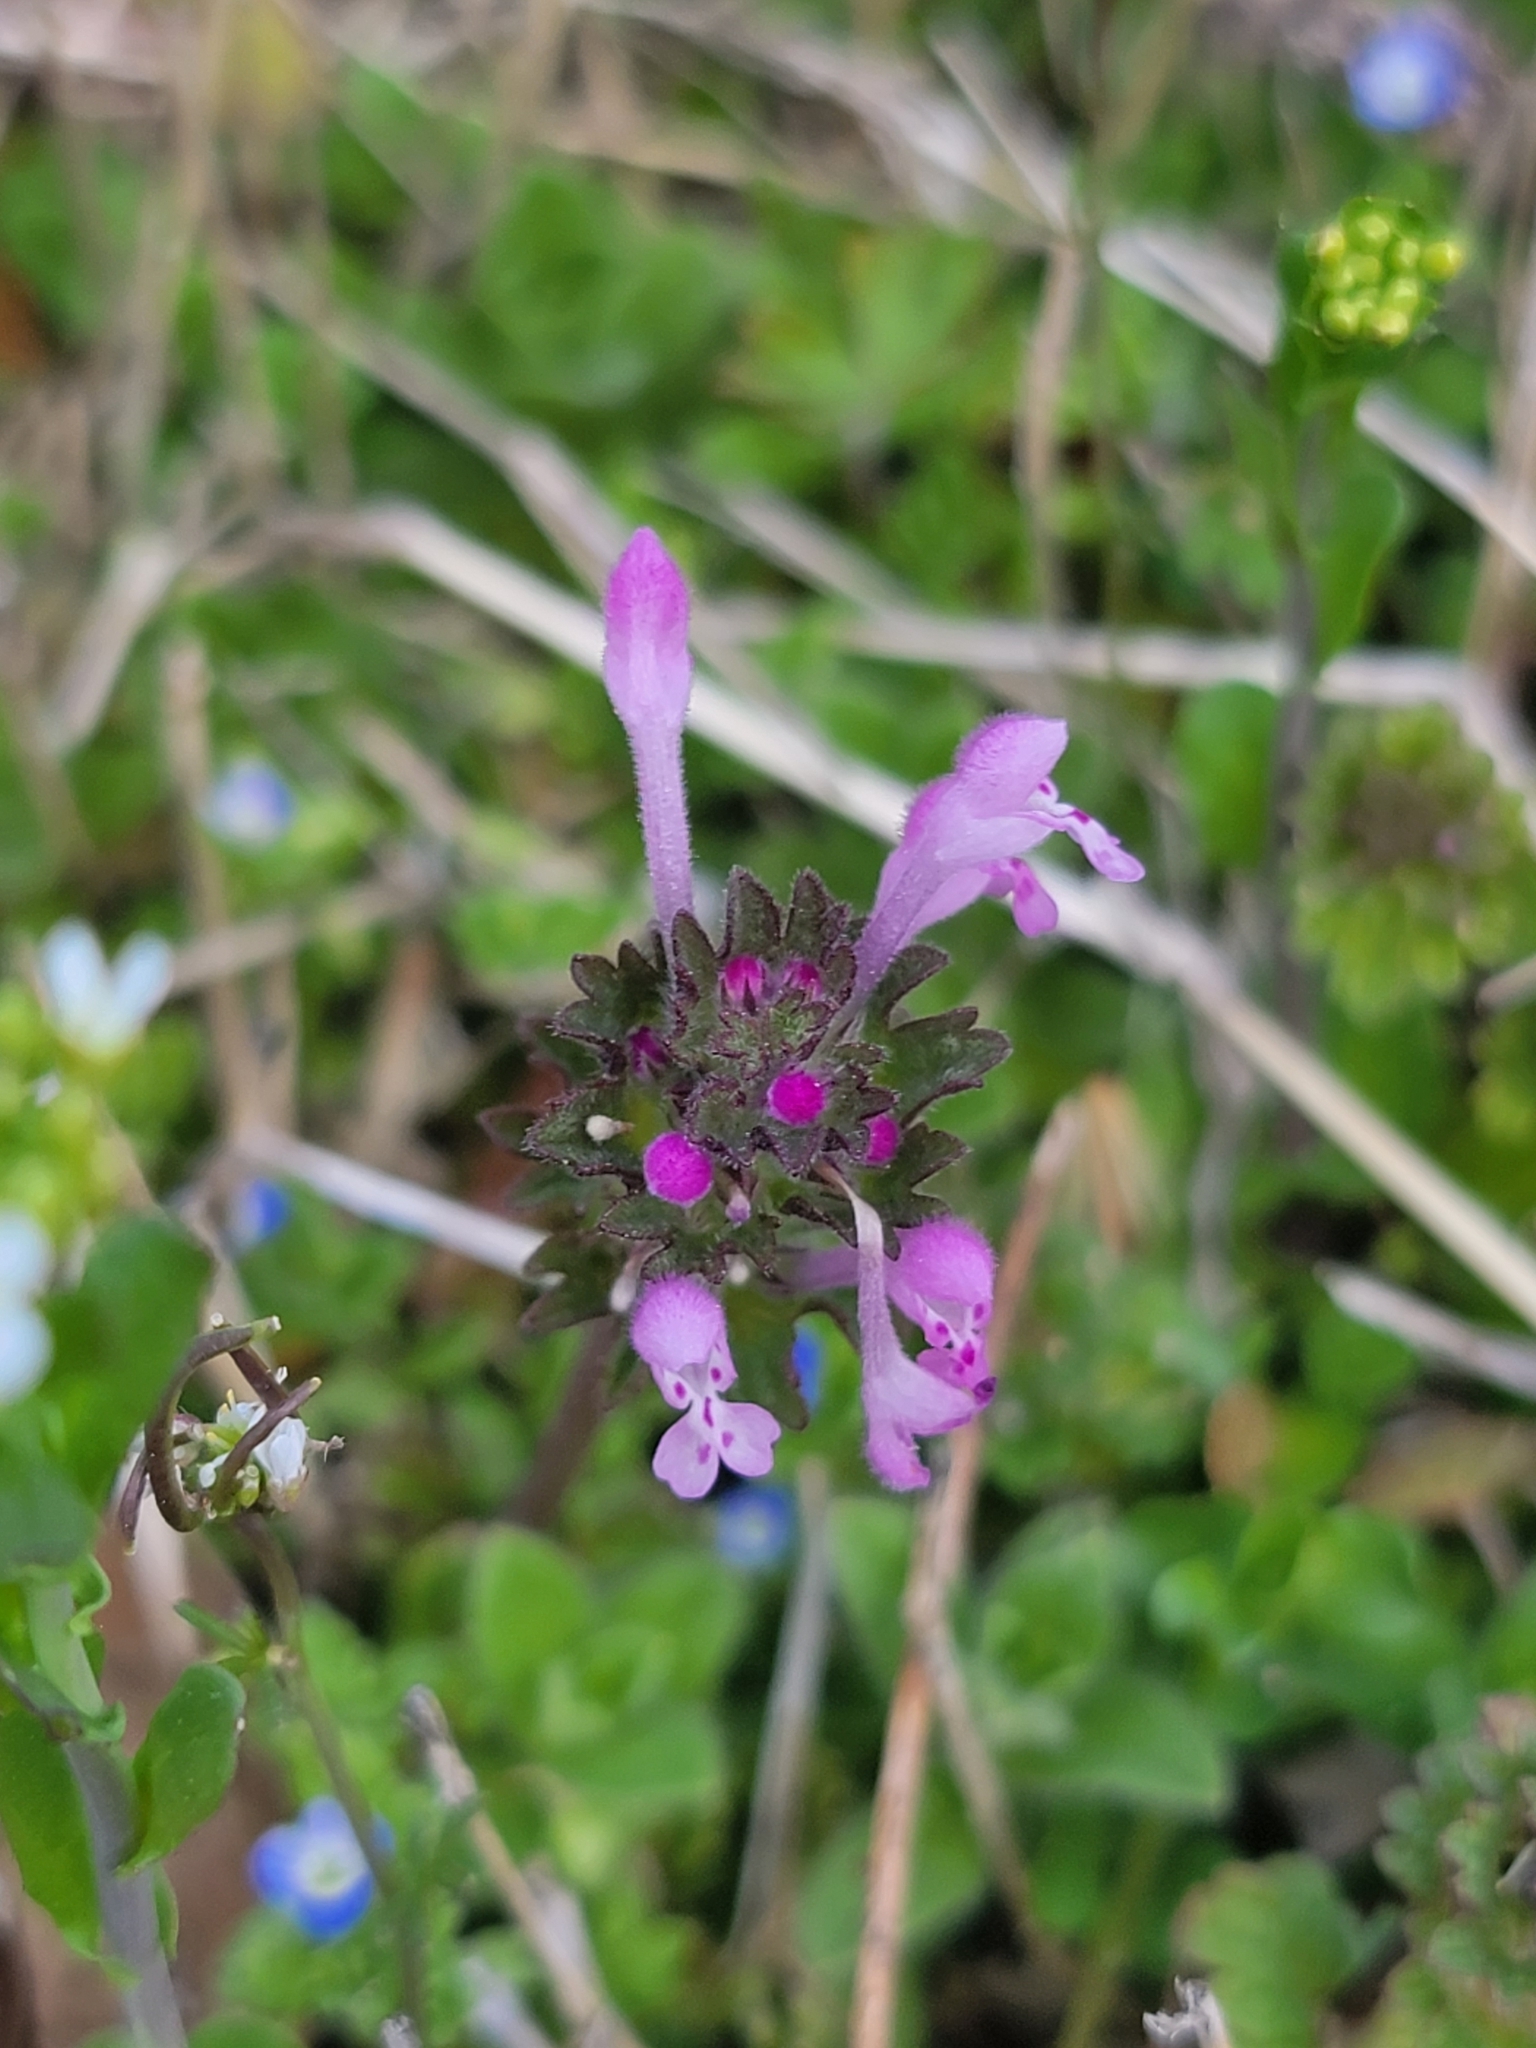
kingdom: Plantae
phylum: Tracheophyta
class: Magnoliopsida
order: Lamiales
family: Lamiaceae
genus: Lamium
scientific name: Lamium amplexicaule
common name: Henbit dead-nettle
